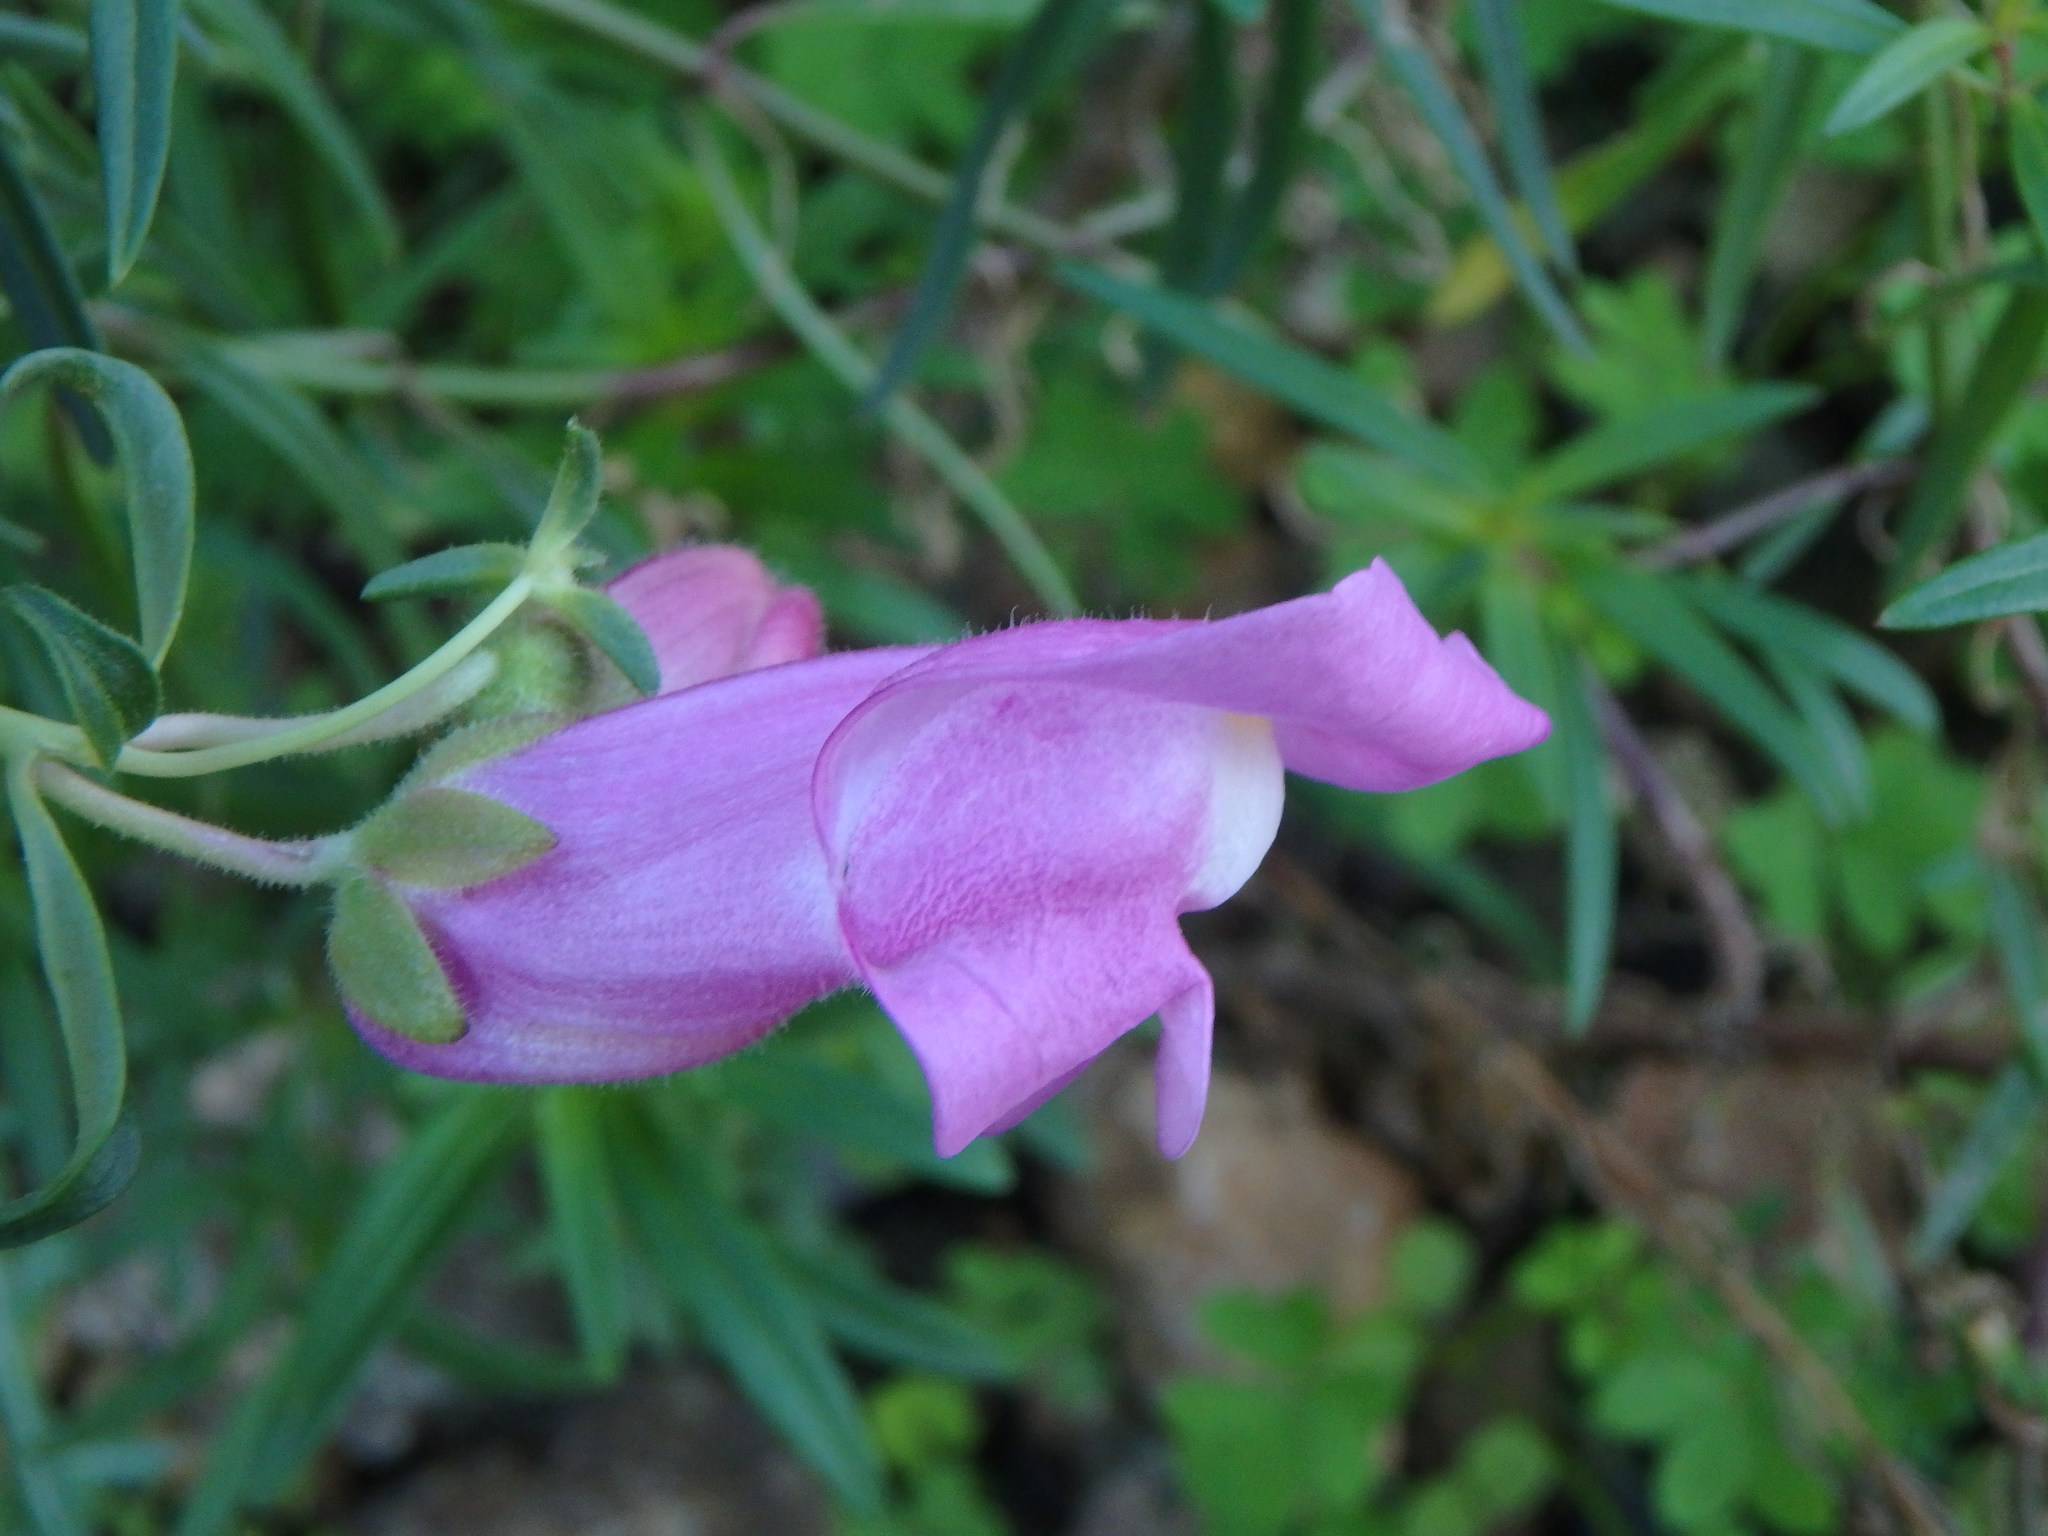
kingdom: Plantae
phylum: Tracheophyta
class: Magnoliopsida
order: Lamiales
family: Plantaginaceae
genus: Antirrhinum
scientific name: Antirrhinum tortuosum
